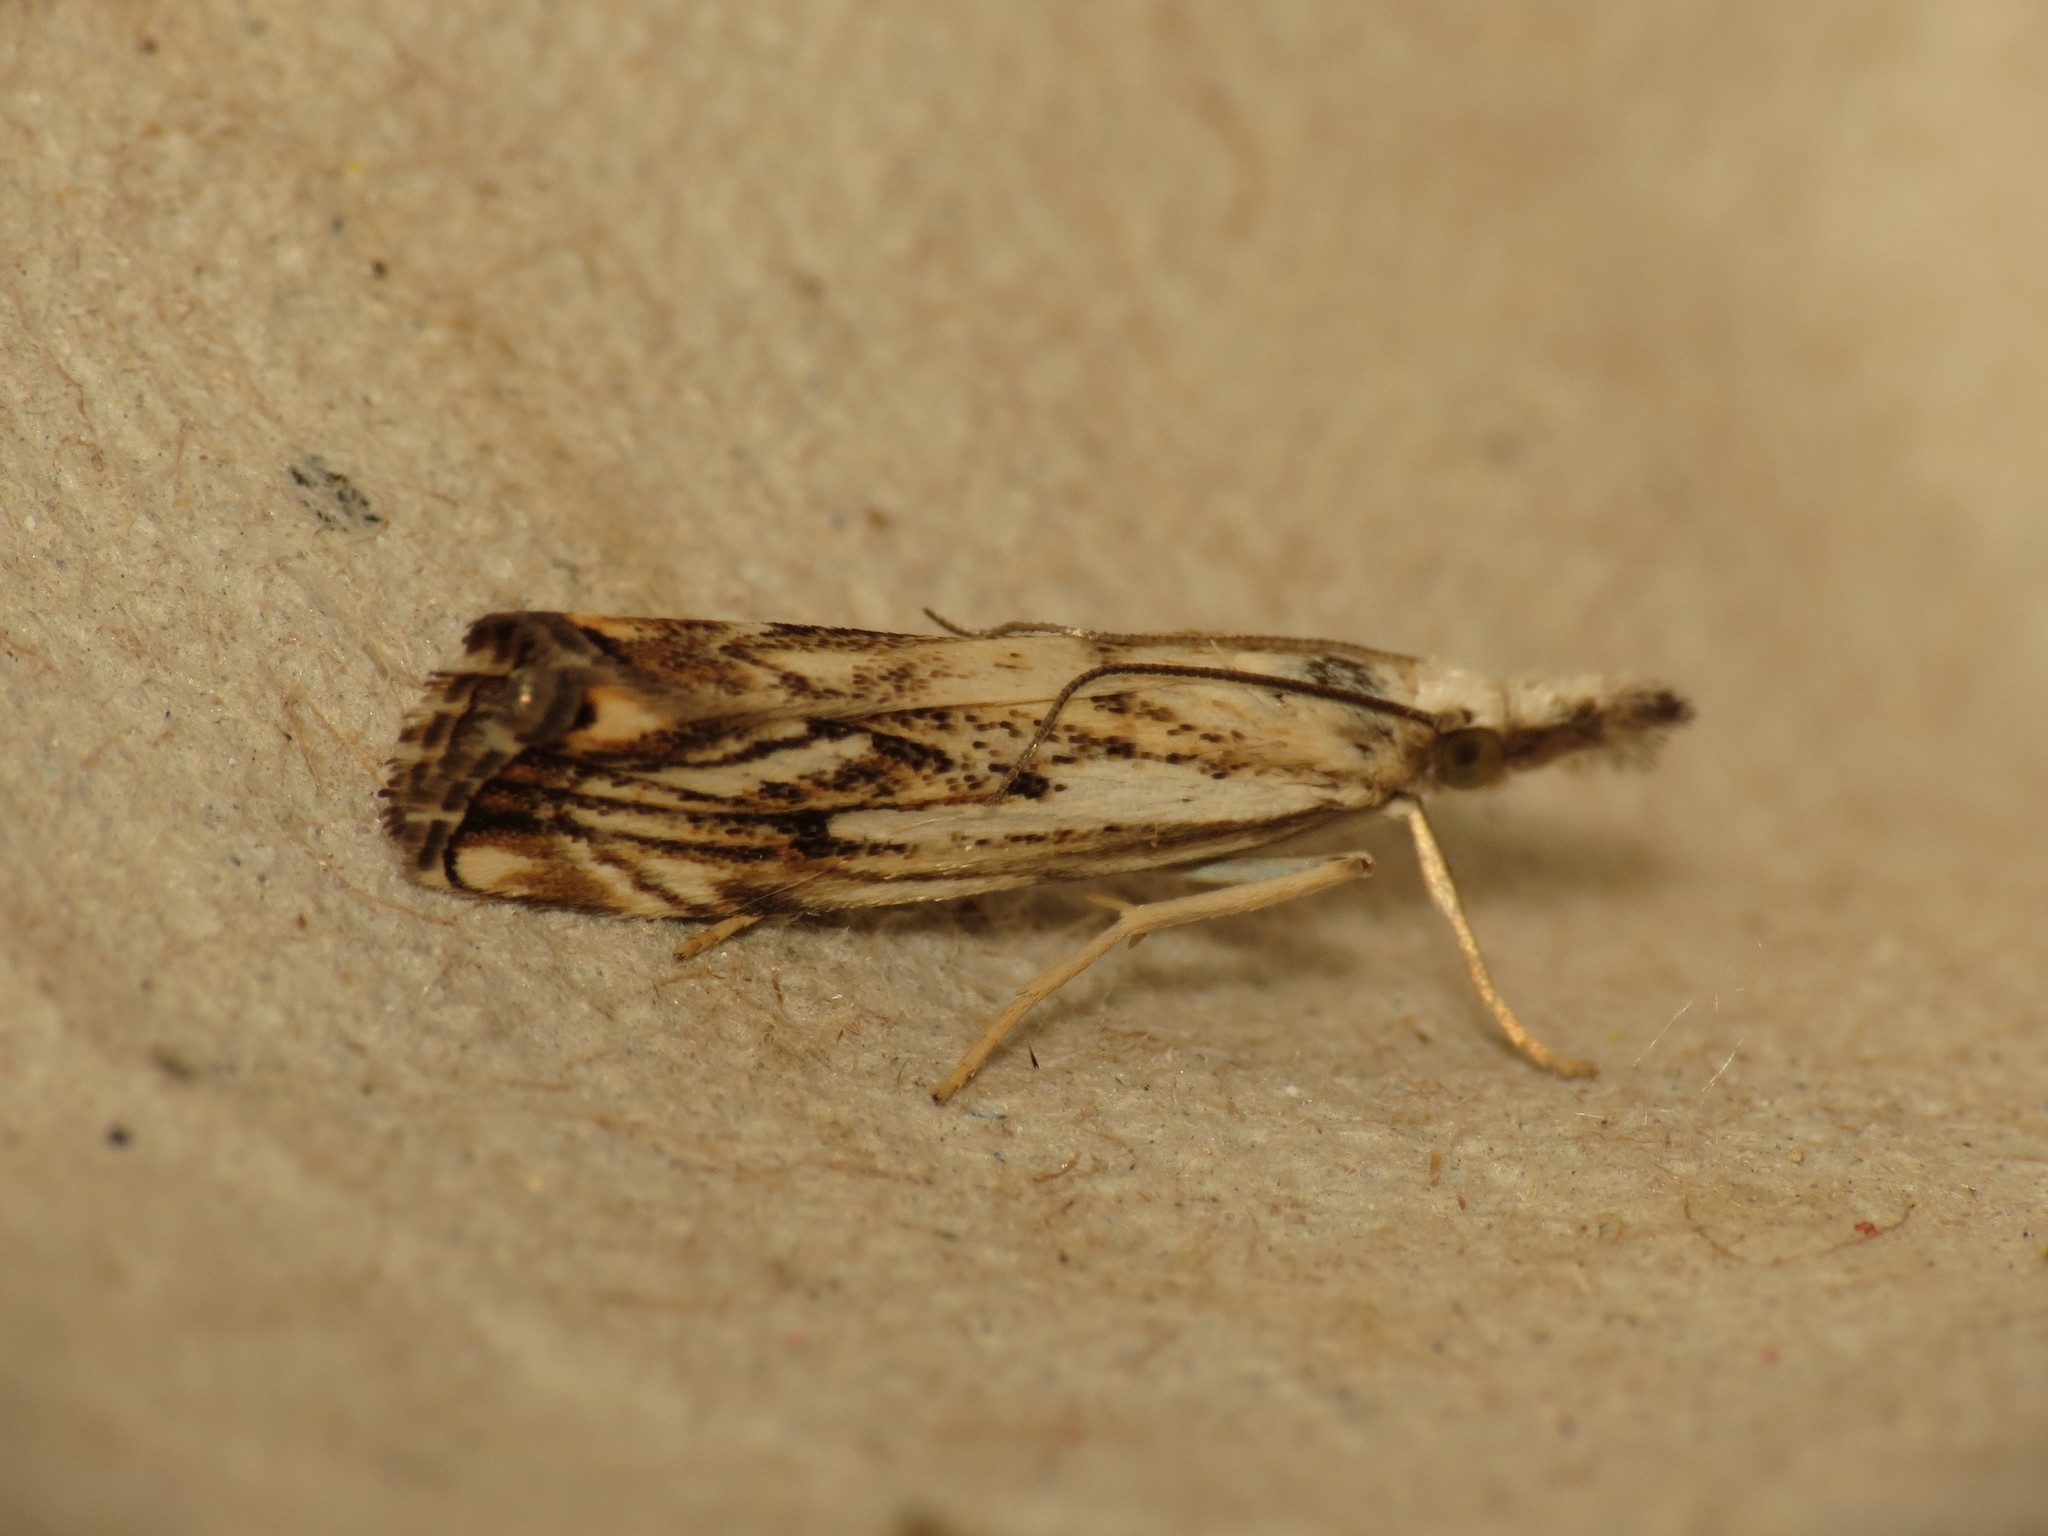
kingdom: Animalia
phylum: Arthropoda
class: Insecta
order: Lepidoptera
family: Crambidae
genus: Catoptria
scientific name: Catoptria falsella
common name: Chequered grass-veneer
